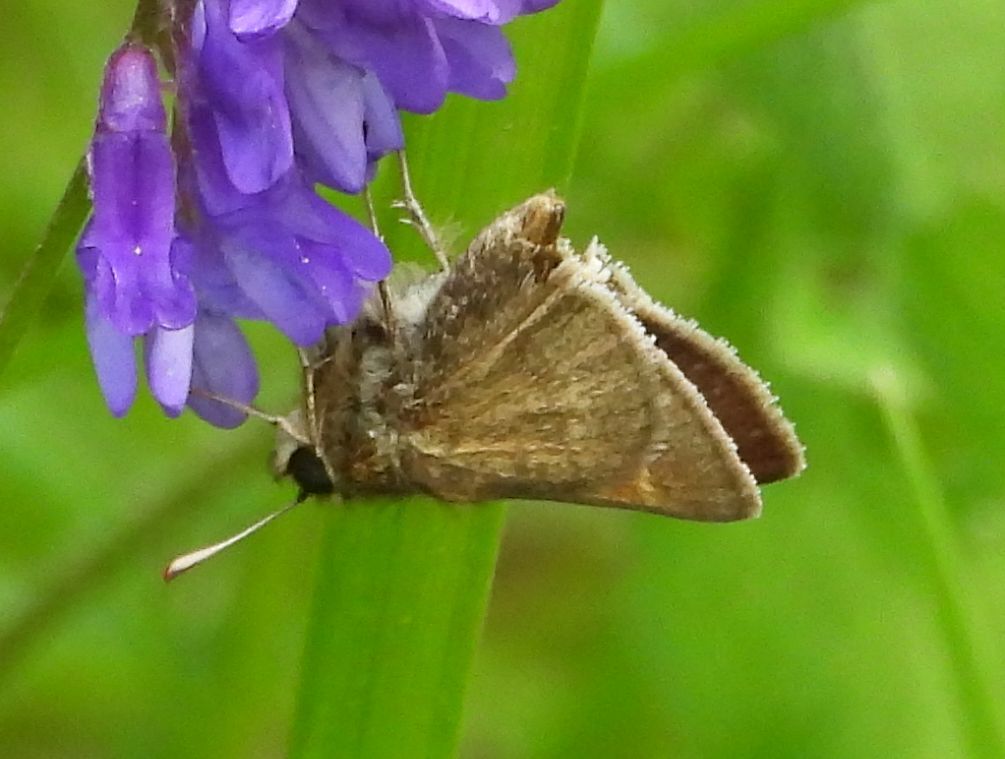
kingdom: Animalia
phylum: Arthropoda
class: Insecta
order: Lepidoptera
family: Hesperiidae
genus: Polites
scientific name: Polites themistocles
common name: Tawny-edged skipper
